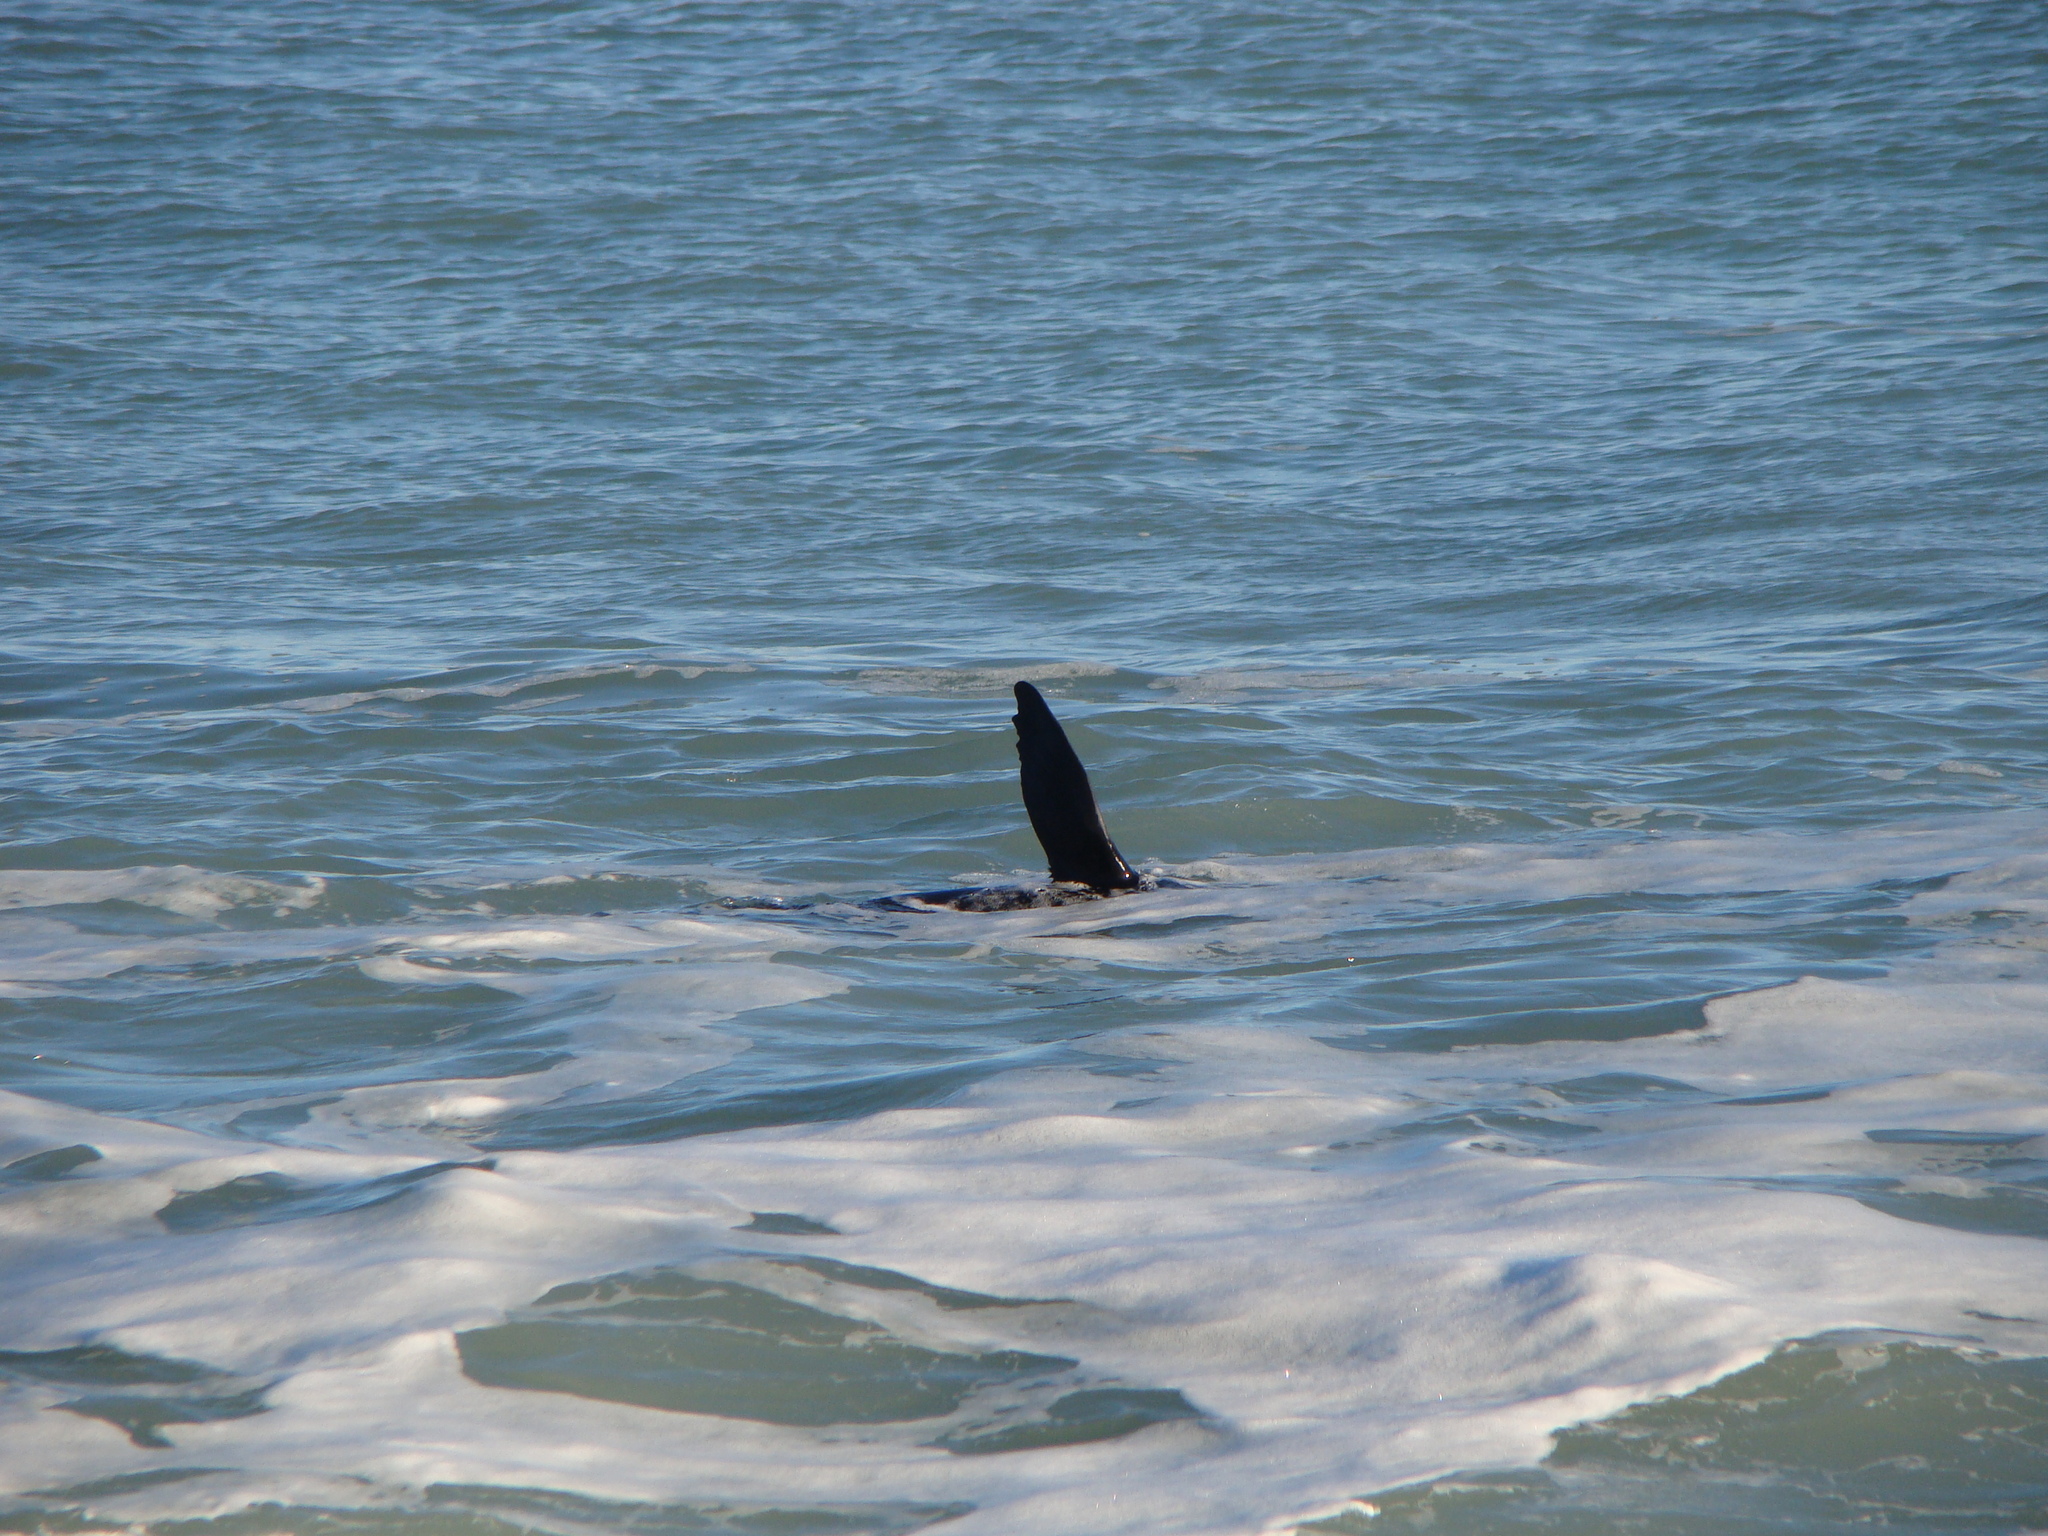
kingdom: Animalia
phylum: Chordata
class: Mammalia
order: Carnivora
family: Otariidae
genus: Arctocephalus
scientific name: Arctocephalus forsteri
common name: New zealand fur seal
